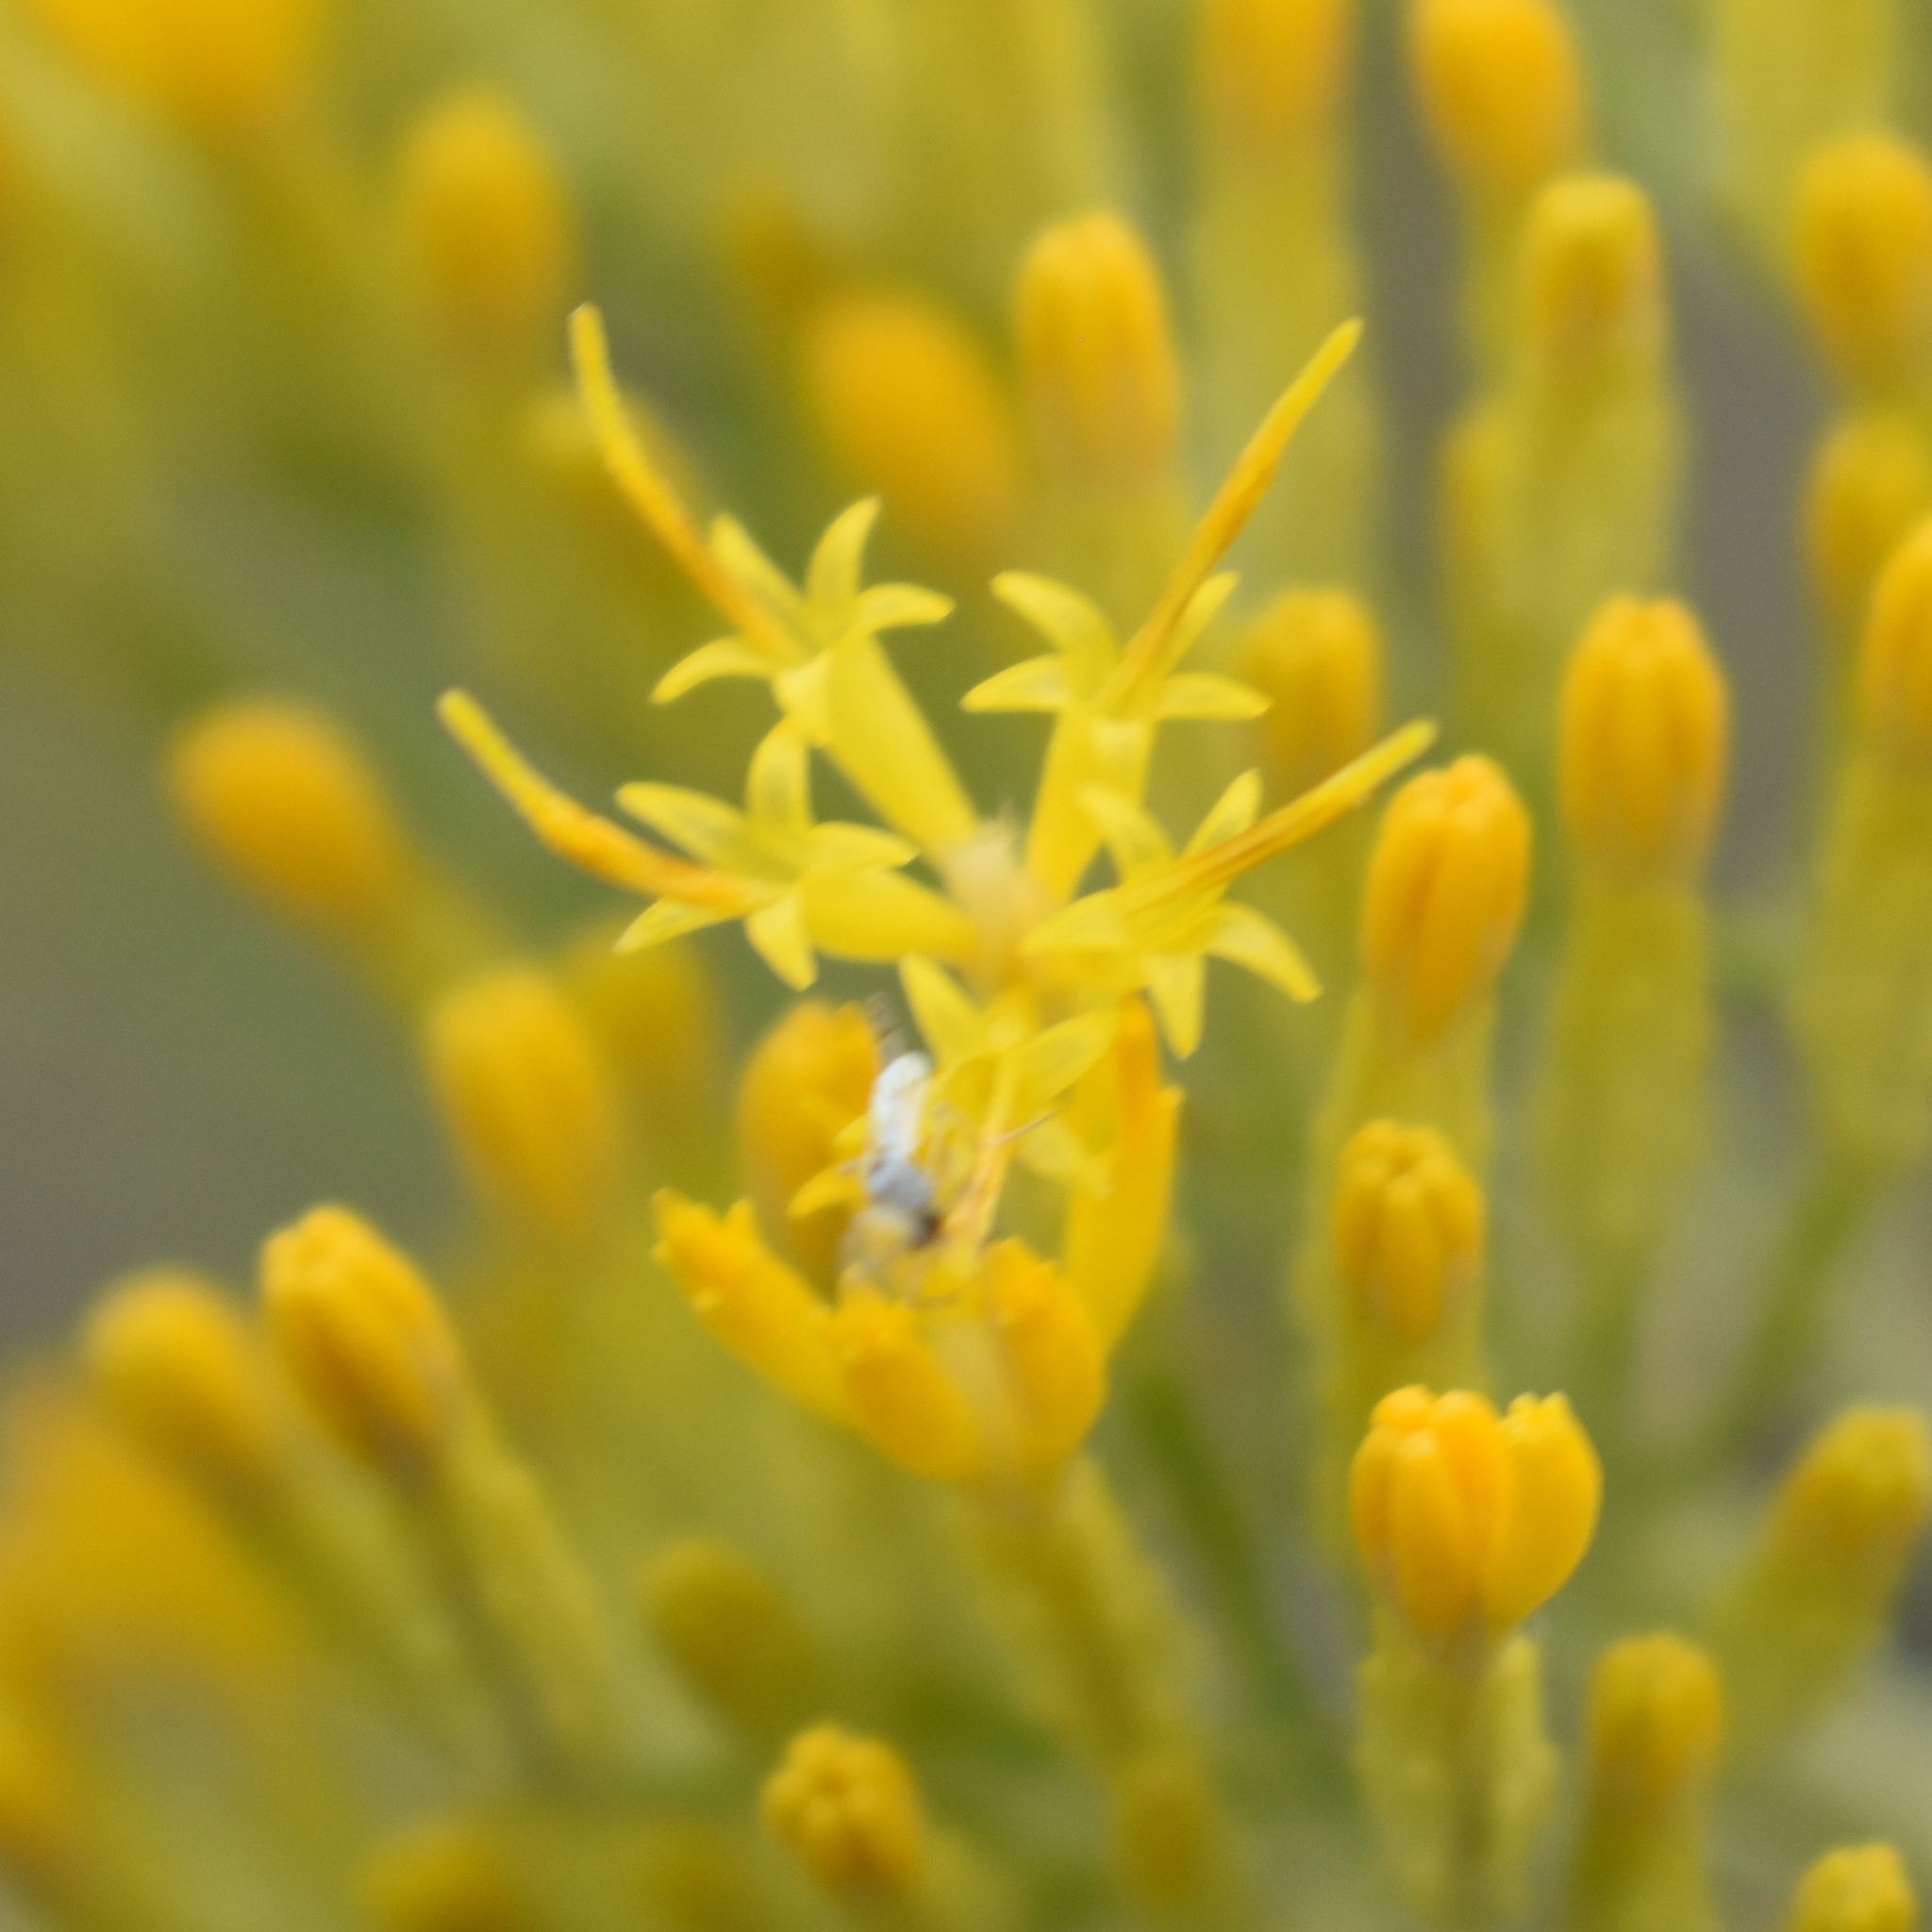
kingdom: Plantae
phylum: Tracheophyta
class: Magnoliopsida
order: Asterales
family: Asteraceae
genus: Ericameria
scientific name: Ericameria nauseosa
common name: Rubber rabbitbrush
